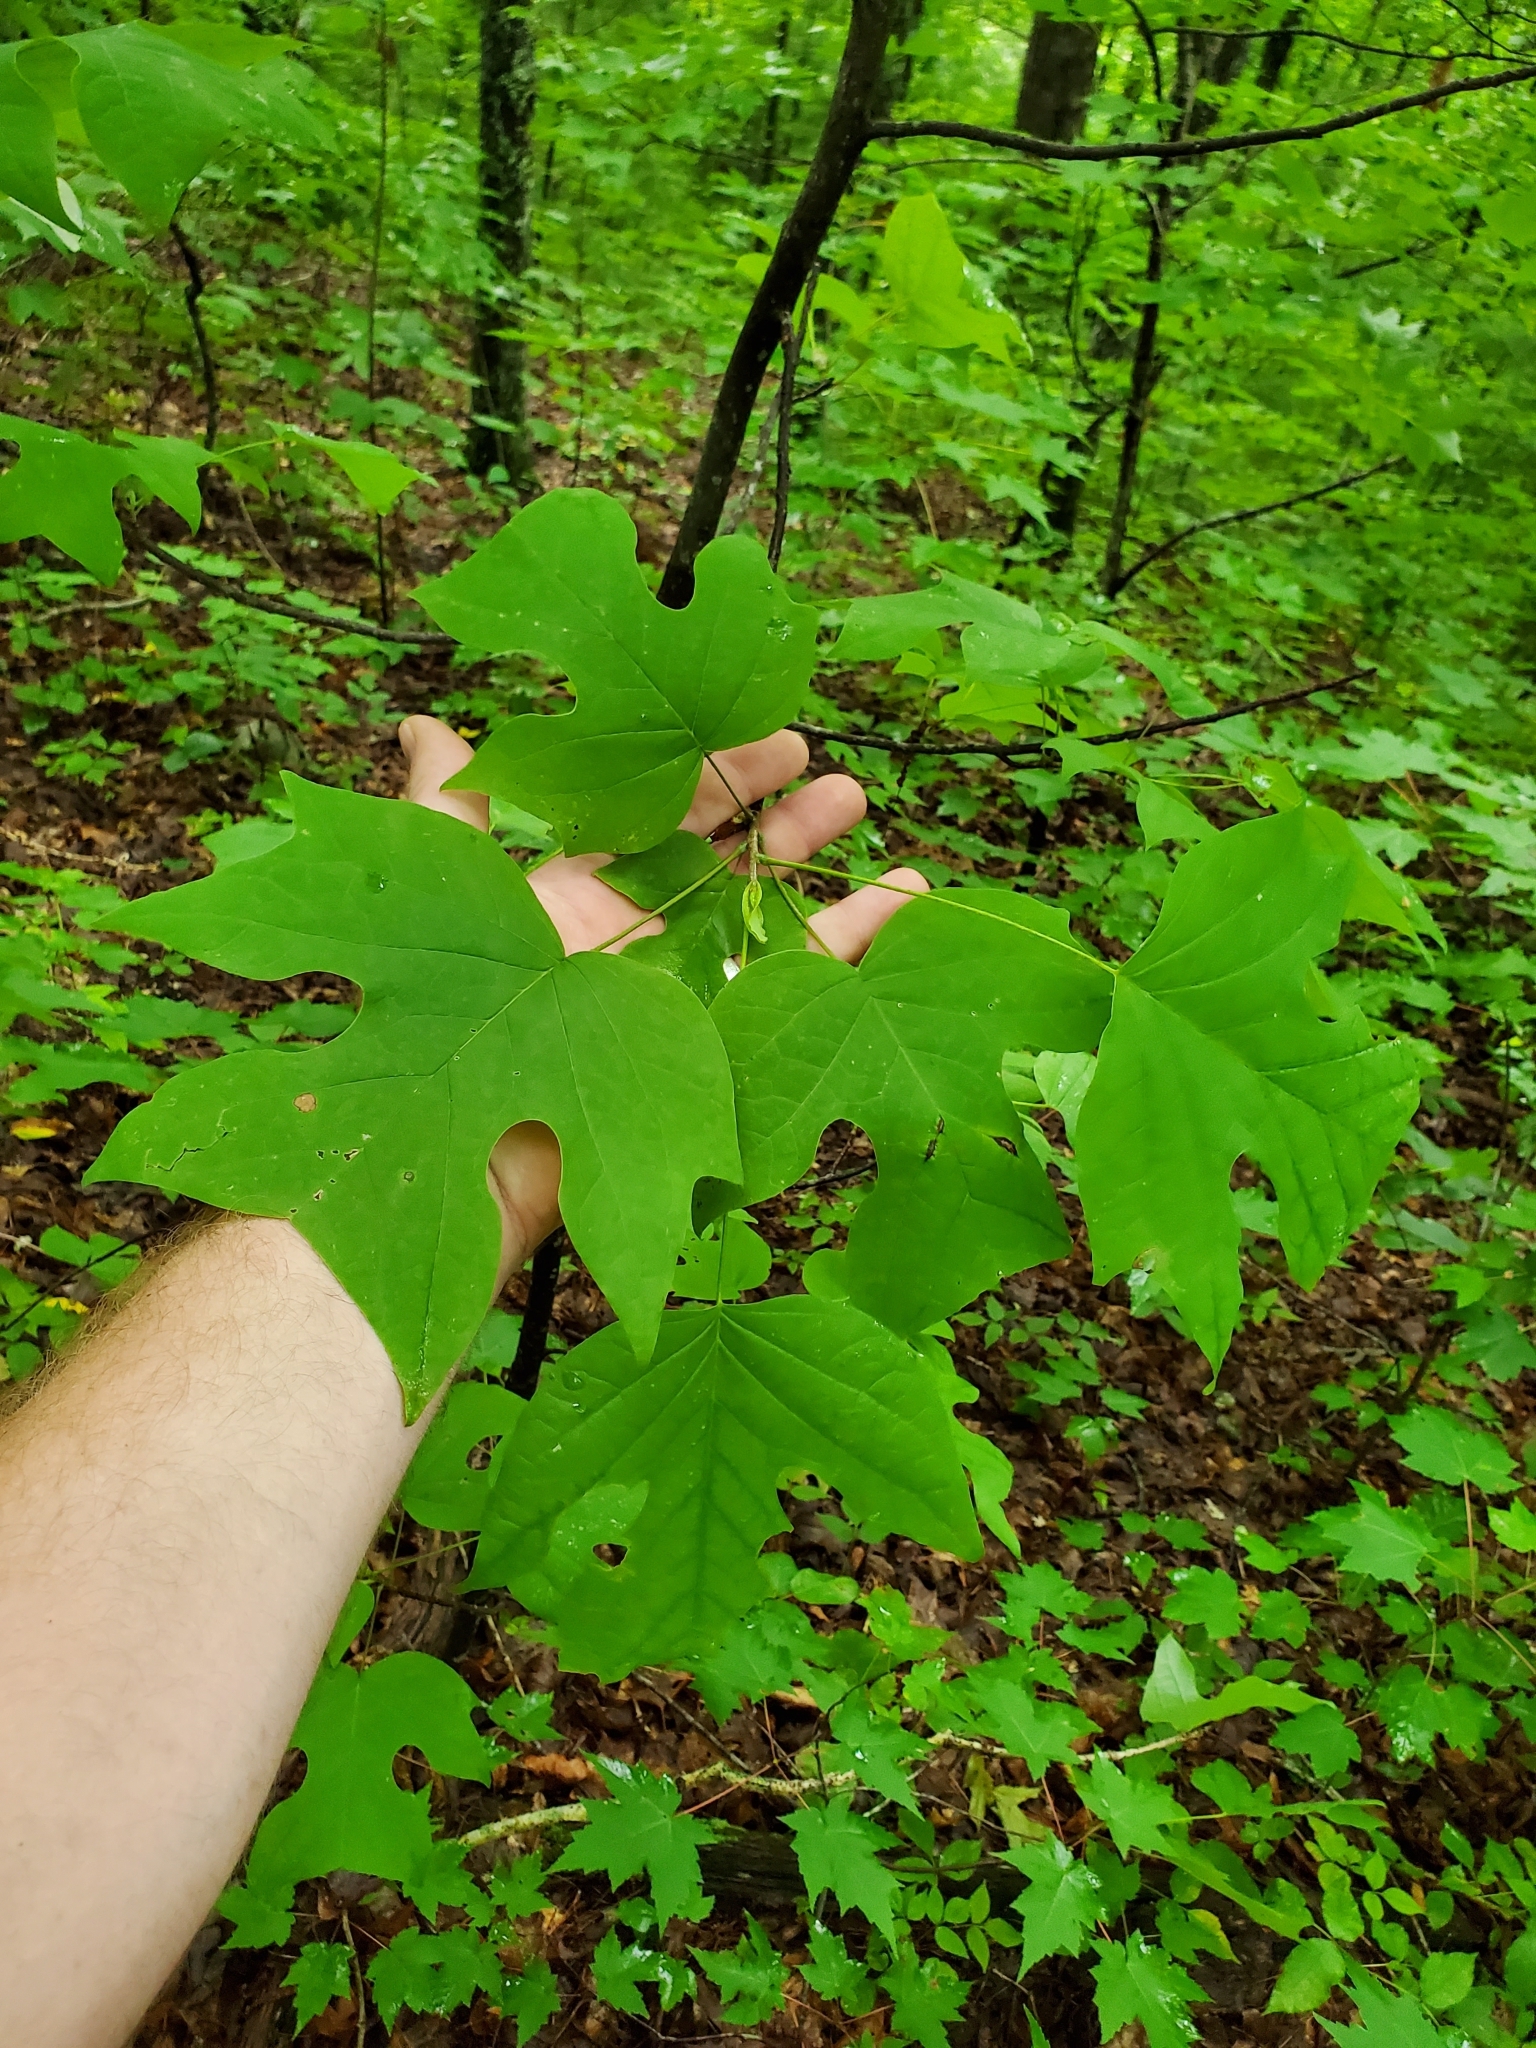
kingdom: Plantae
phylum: Tracheophyta
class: Magnoliopsida
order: Magnoliales
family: Magnoliaceae
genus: Liriodendron
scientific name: Liriodendron tulipifera
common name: Tulip tree
